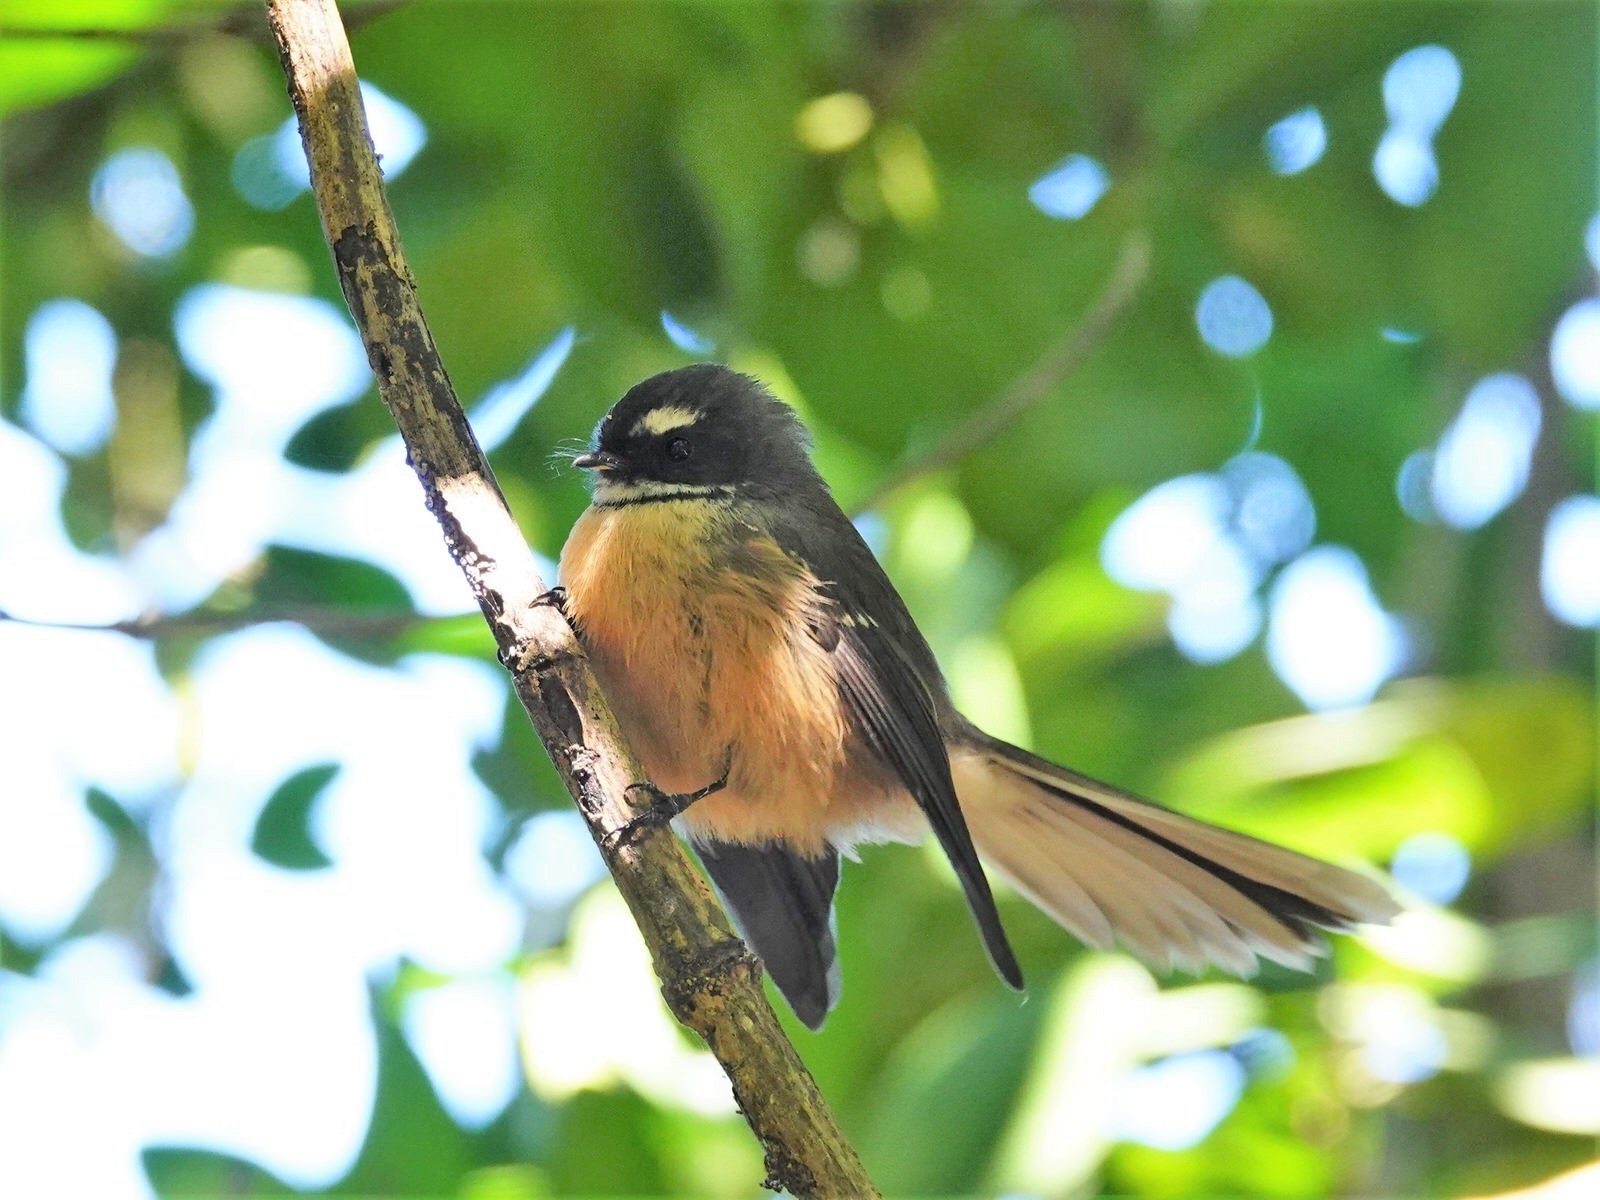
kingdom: Animalia
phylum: Chordata
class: Aves
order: Passeriformes
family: Rhipiduridae
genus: Rhipidura
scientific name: Rhipidura fuliginosa
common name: New zealand fantail
